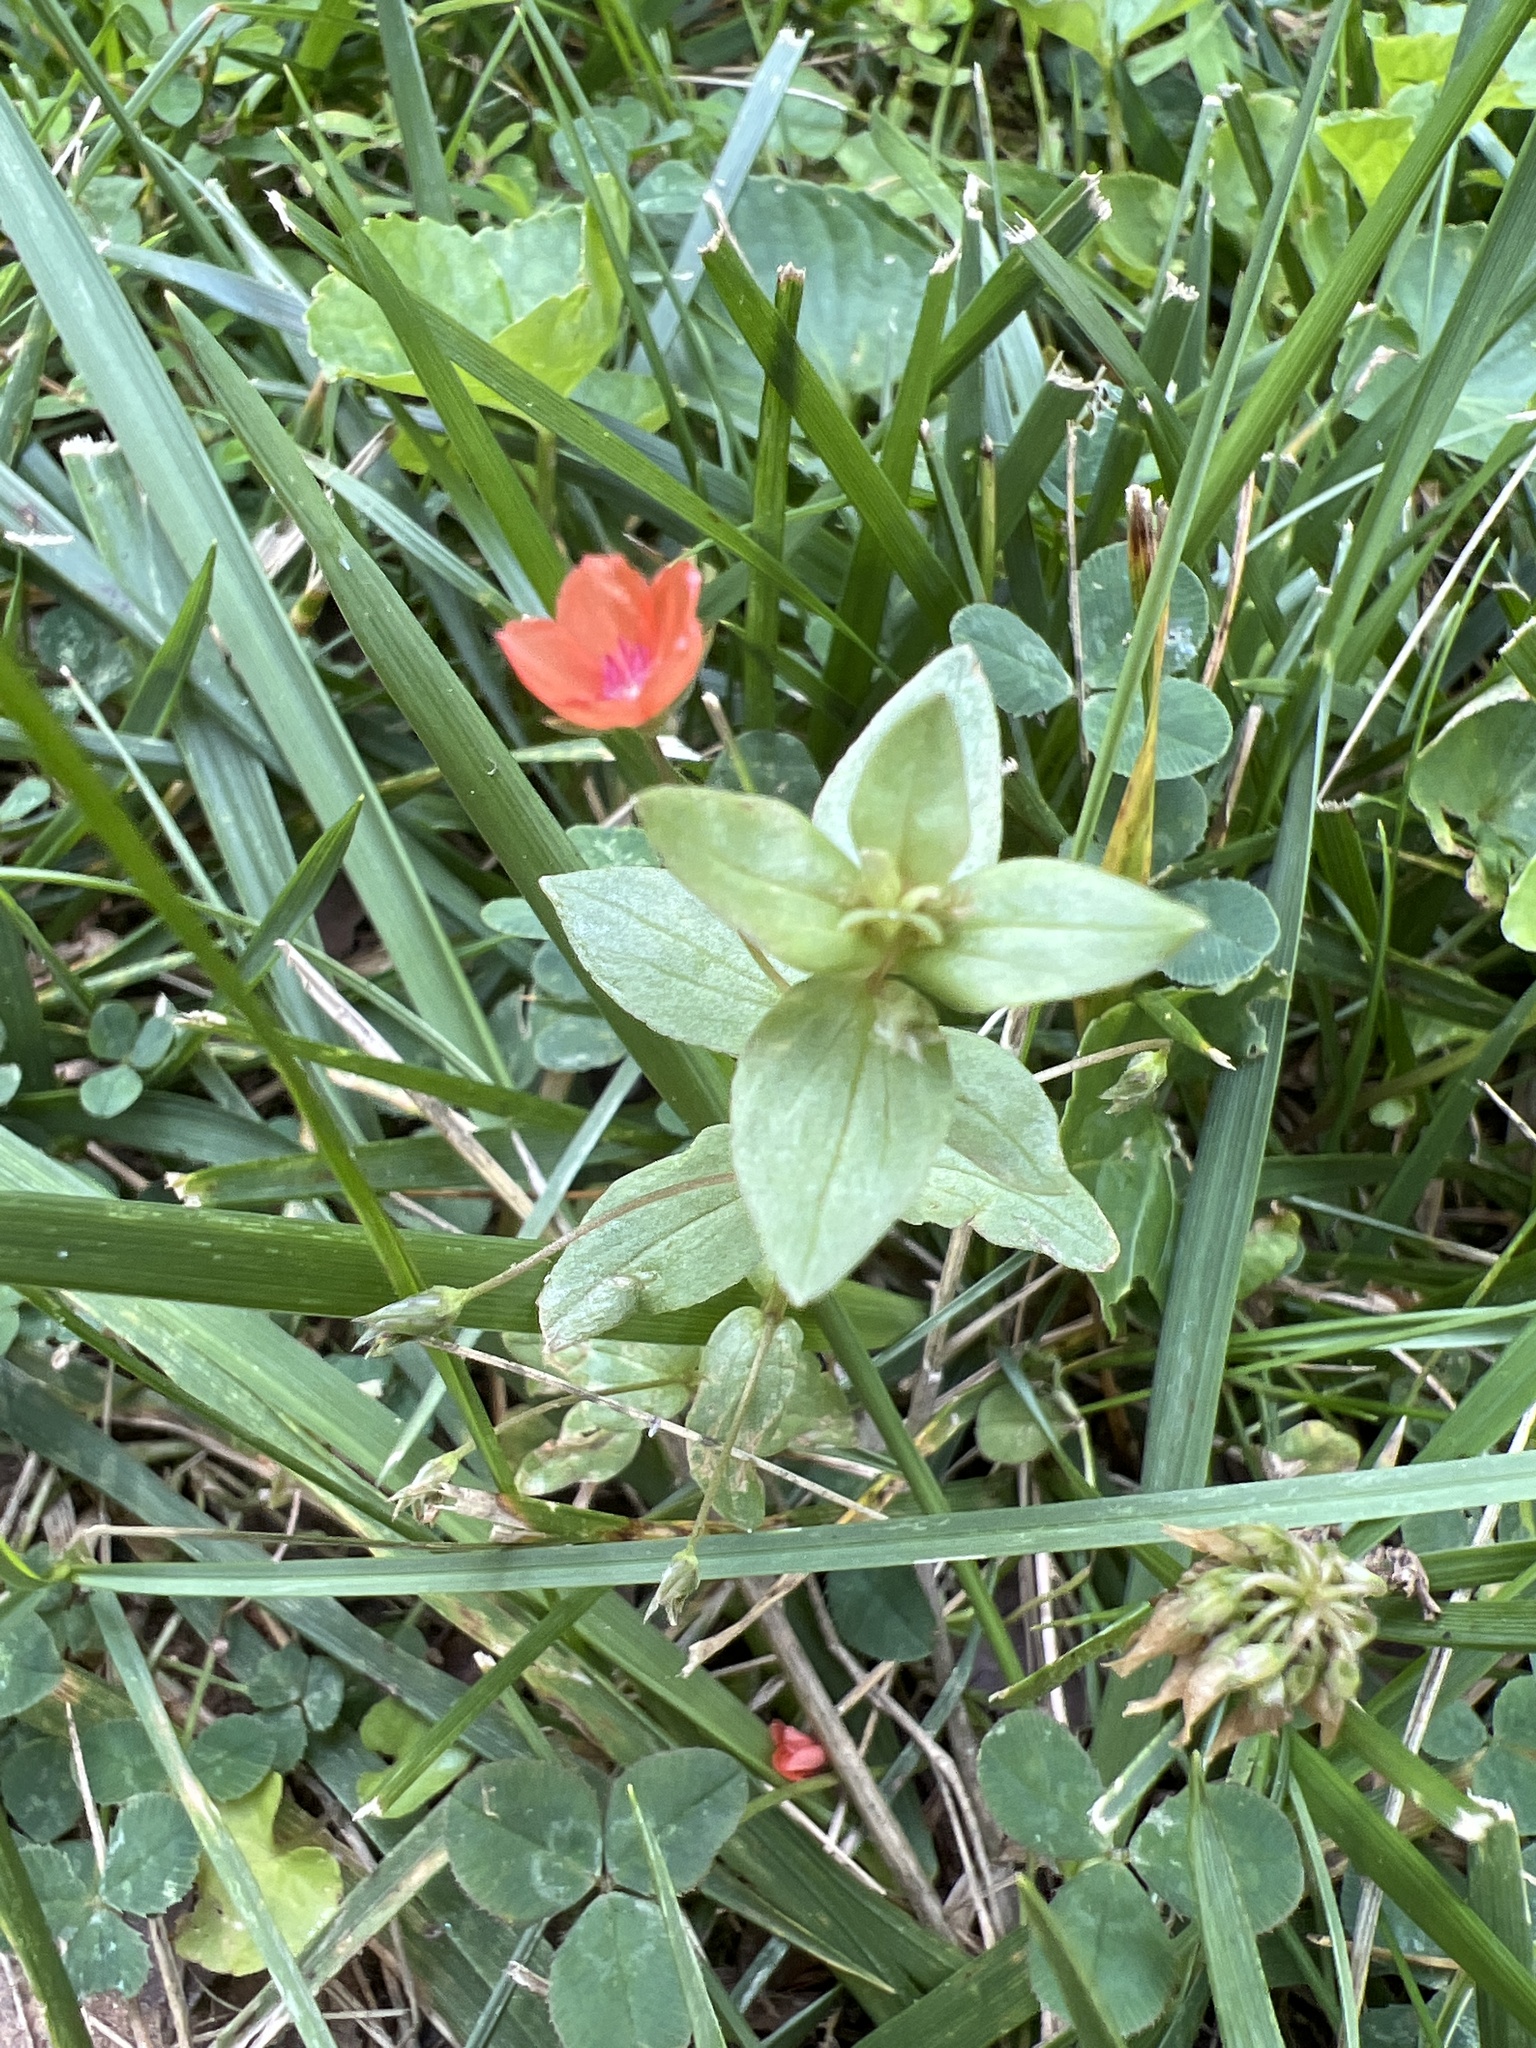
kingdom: Plantae
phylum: Tracheophyta
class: Magnoliopsida
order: Ericales
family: Primulaceae
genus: Lysimachia
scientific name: Lysimachia arvensis
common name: Scarlet pimpernel
